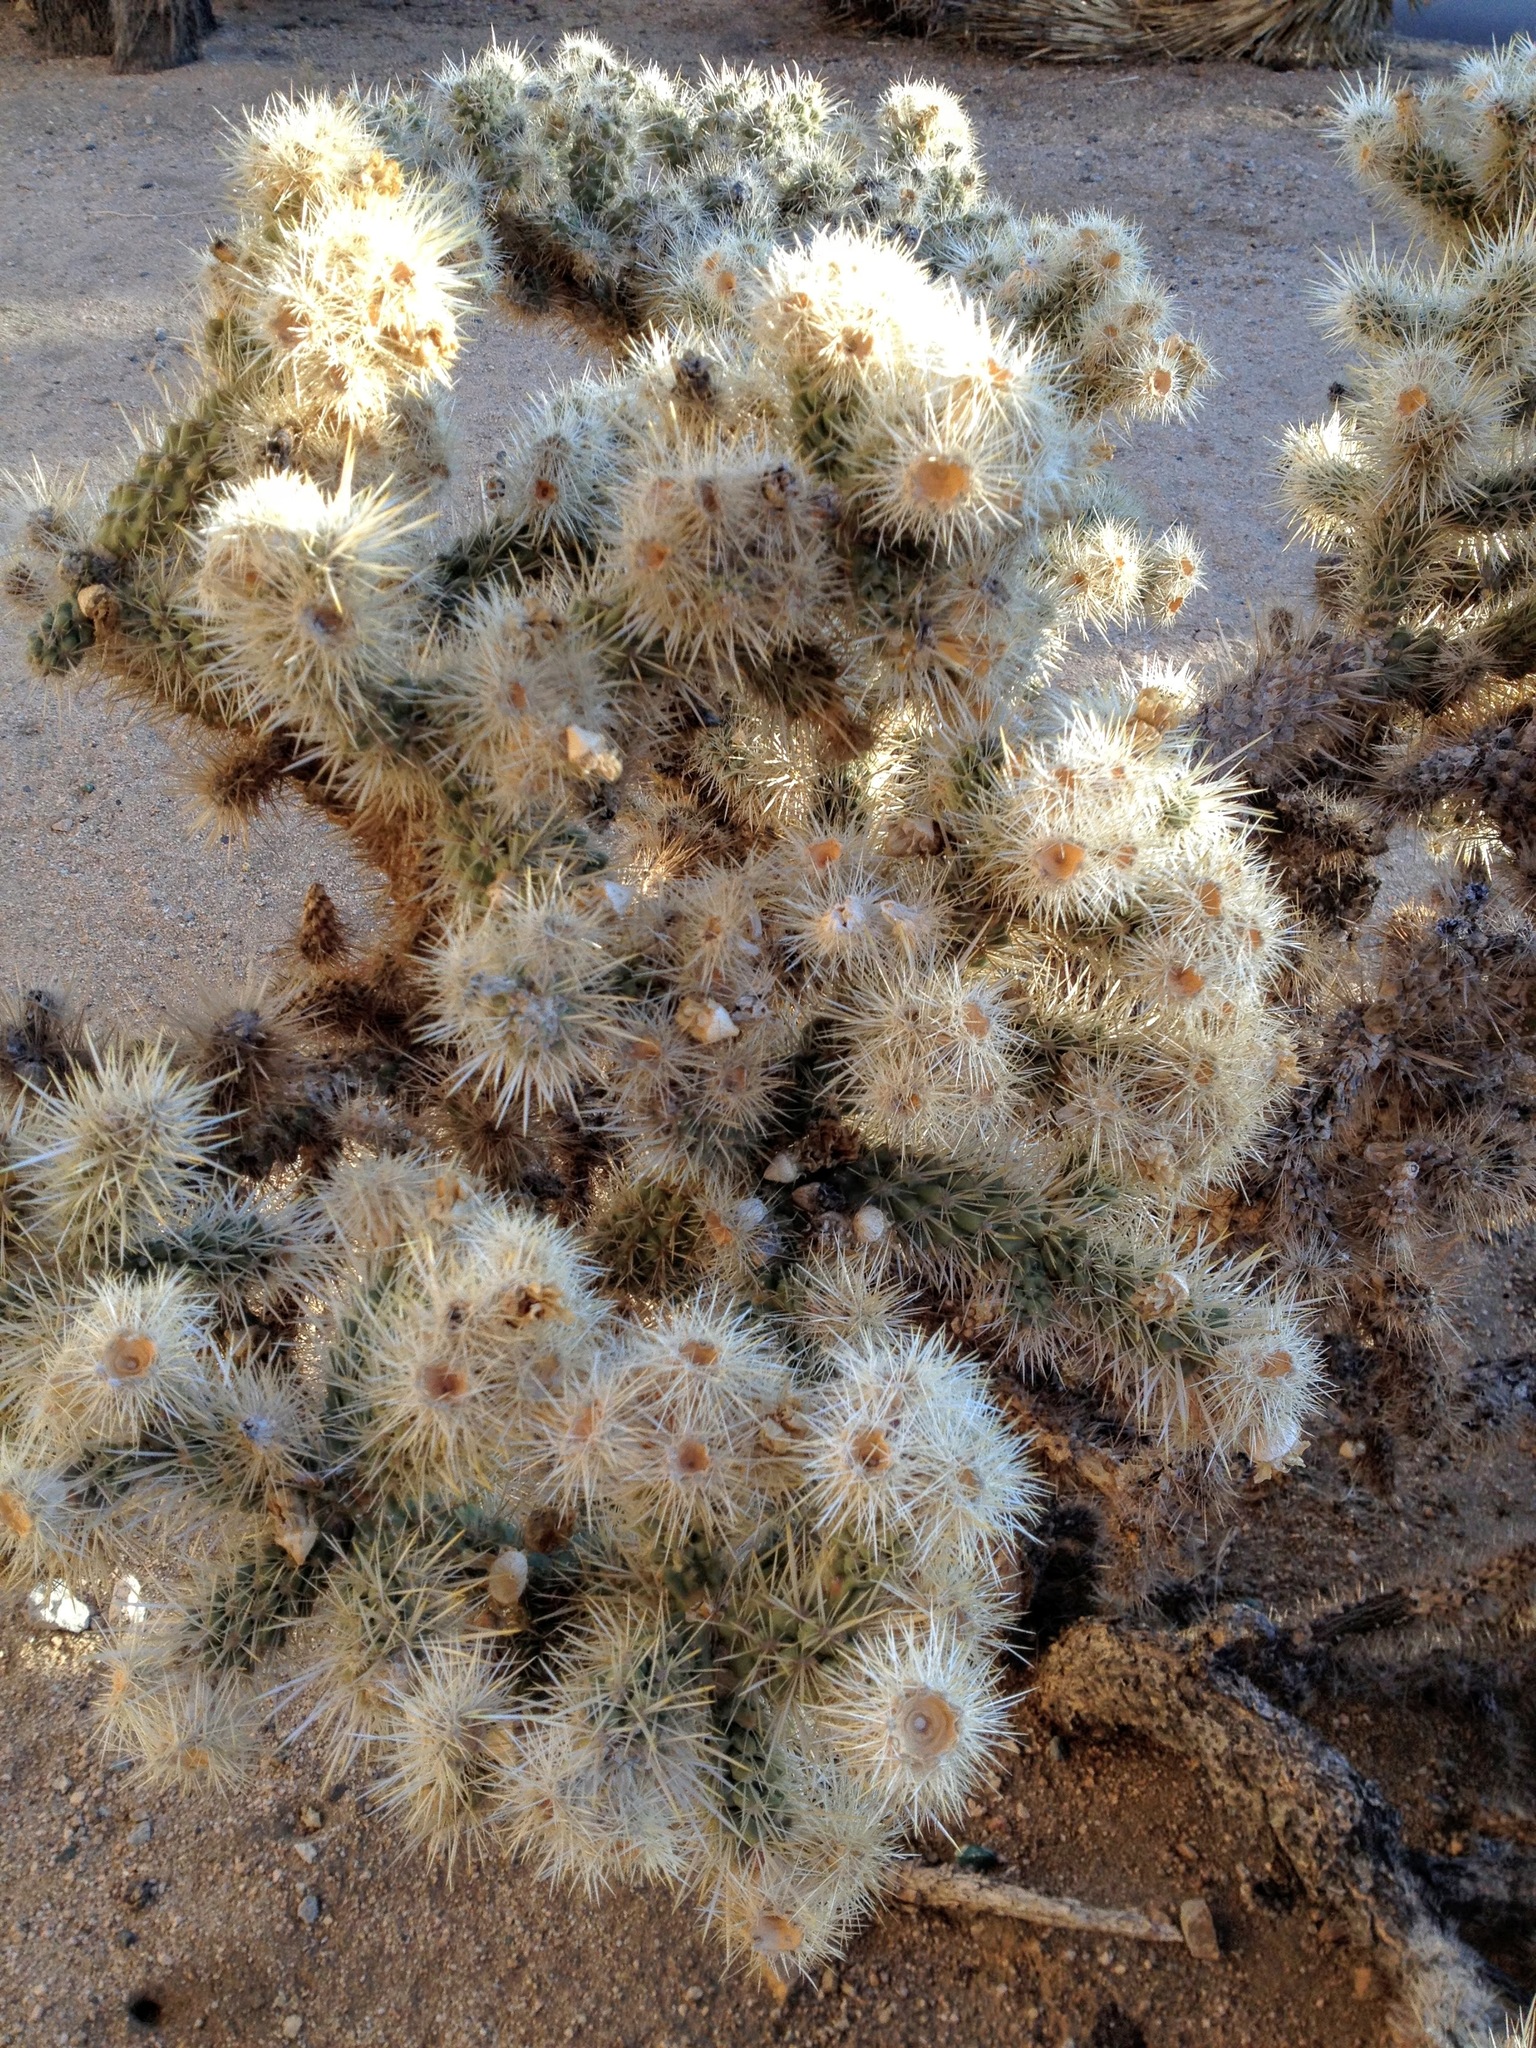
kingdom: Plantae
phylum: Tracheophyta
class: Magnoliopsida
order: Caryophyllales
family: Cactaceae
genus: Cylindropuntia
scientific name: Cylindropuntia echinocarpa
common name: Ground cholla
